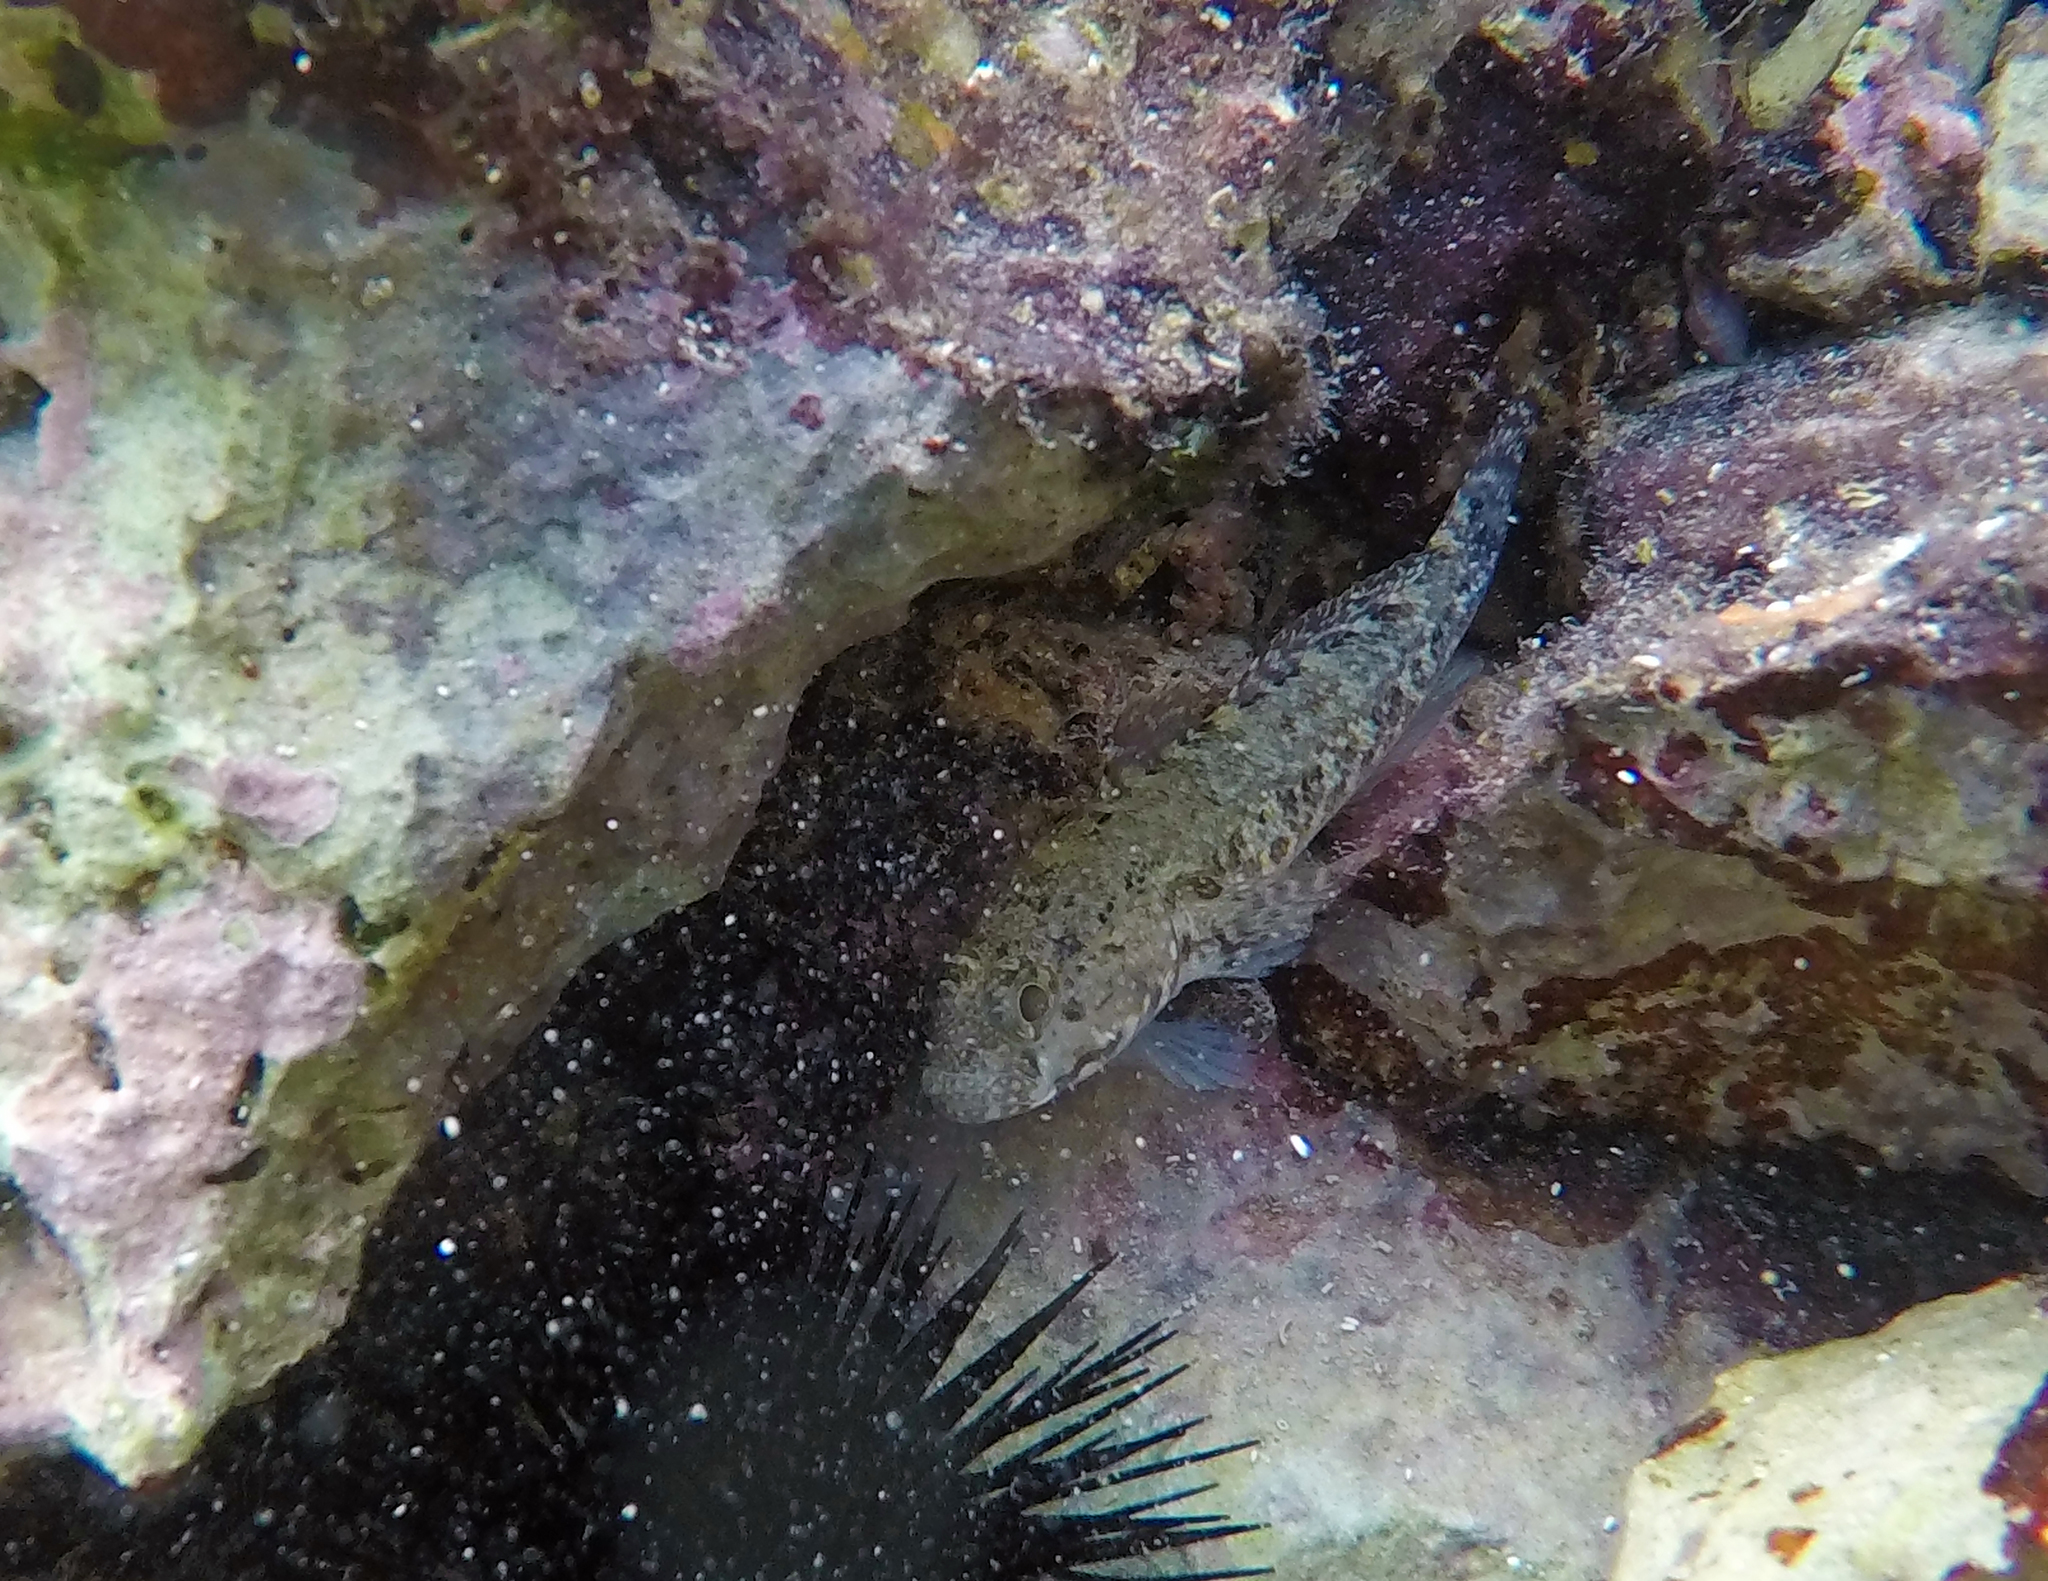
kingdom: Animalia
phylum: Chordata
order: Perciformes
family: Gobiidae
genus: Gobius
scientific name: Gobius paganellus
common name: Rock goby
